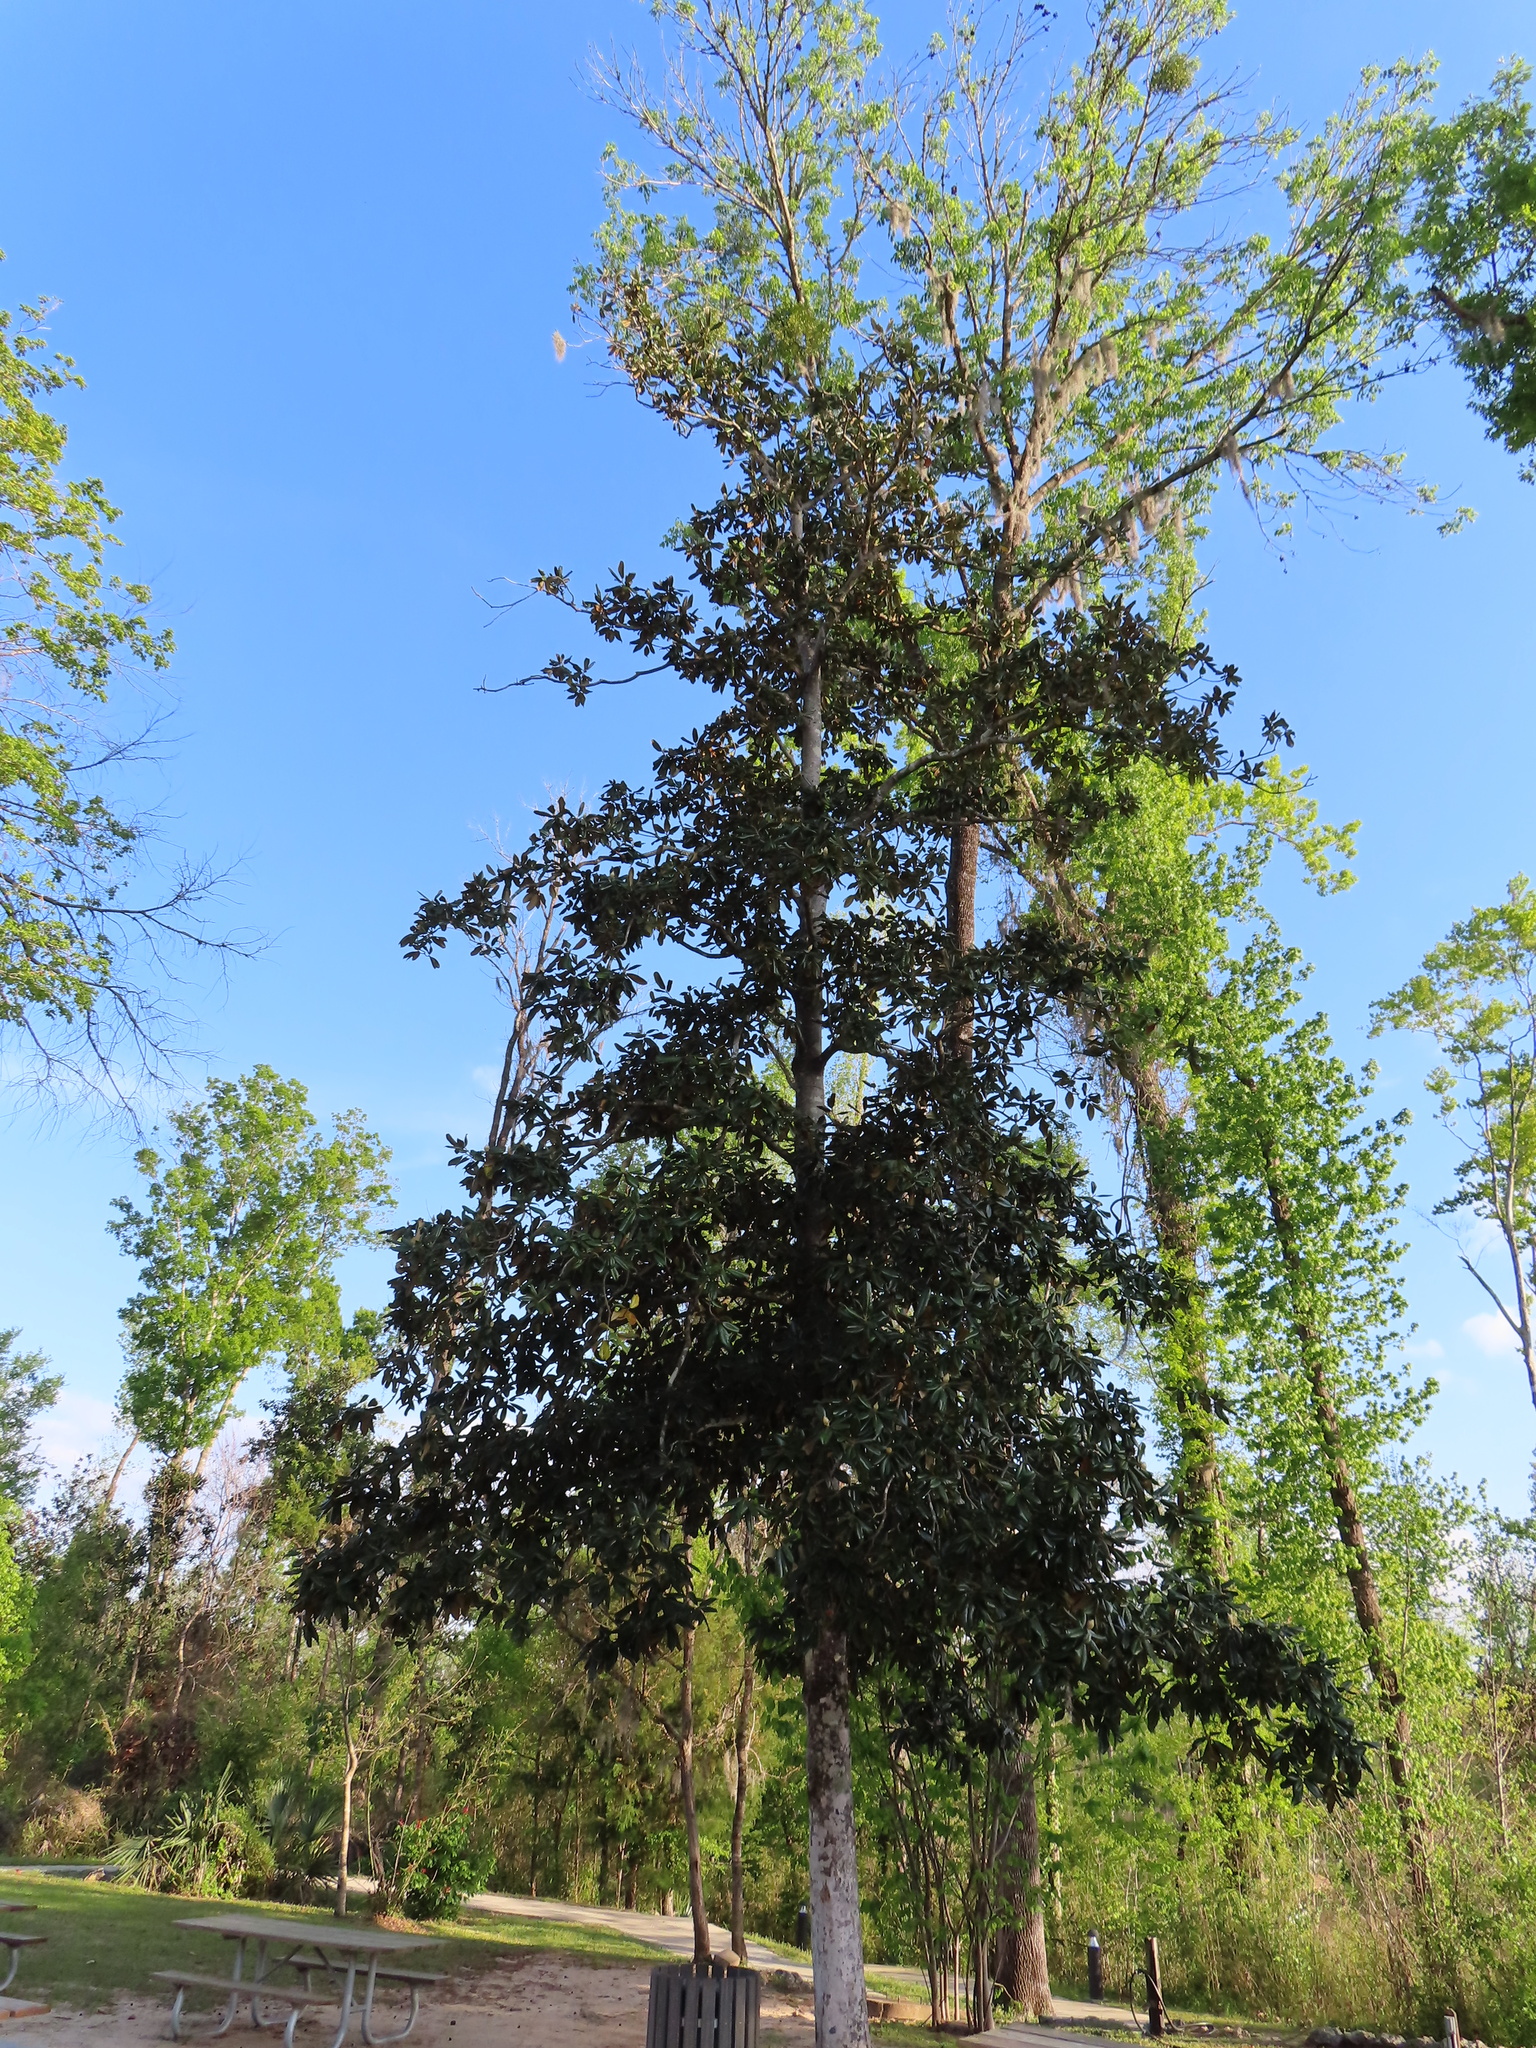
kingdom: Plantae
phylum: Tracheophyta
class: Magnoliopsida
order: Magnoliales
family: Magnoliaceae
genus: Magnolia
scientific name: Magnolia grandiflora
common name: Southern magnolia
